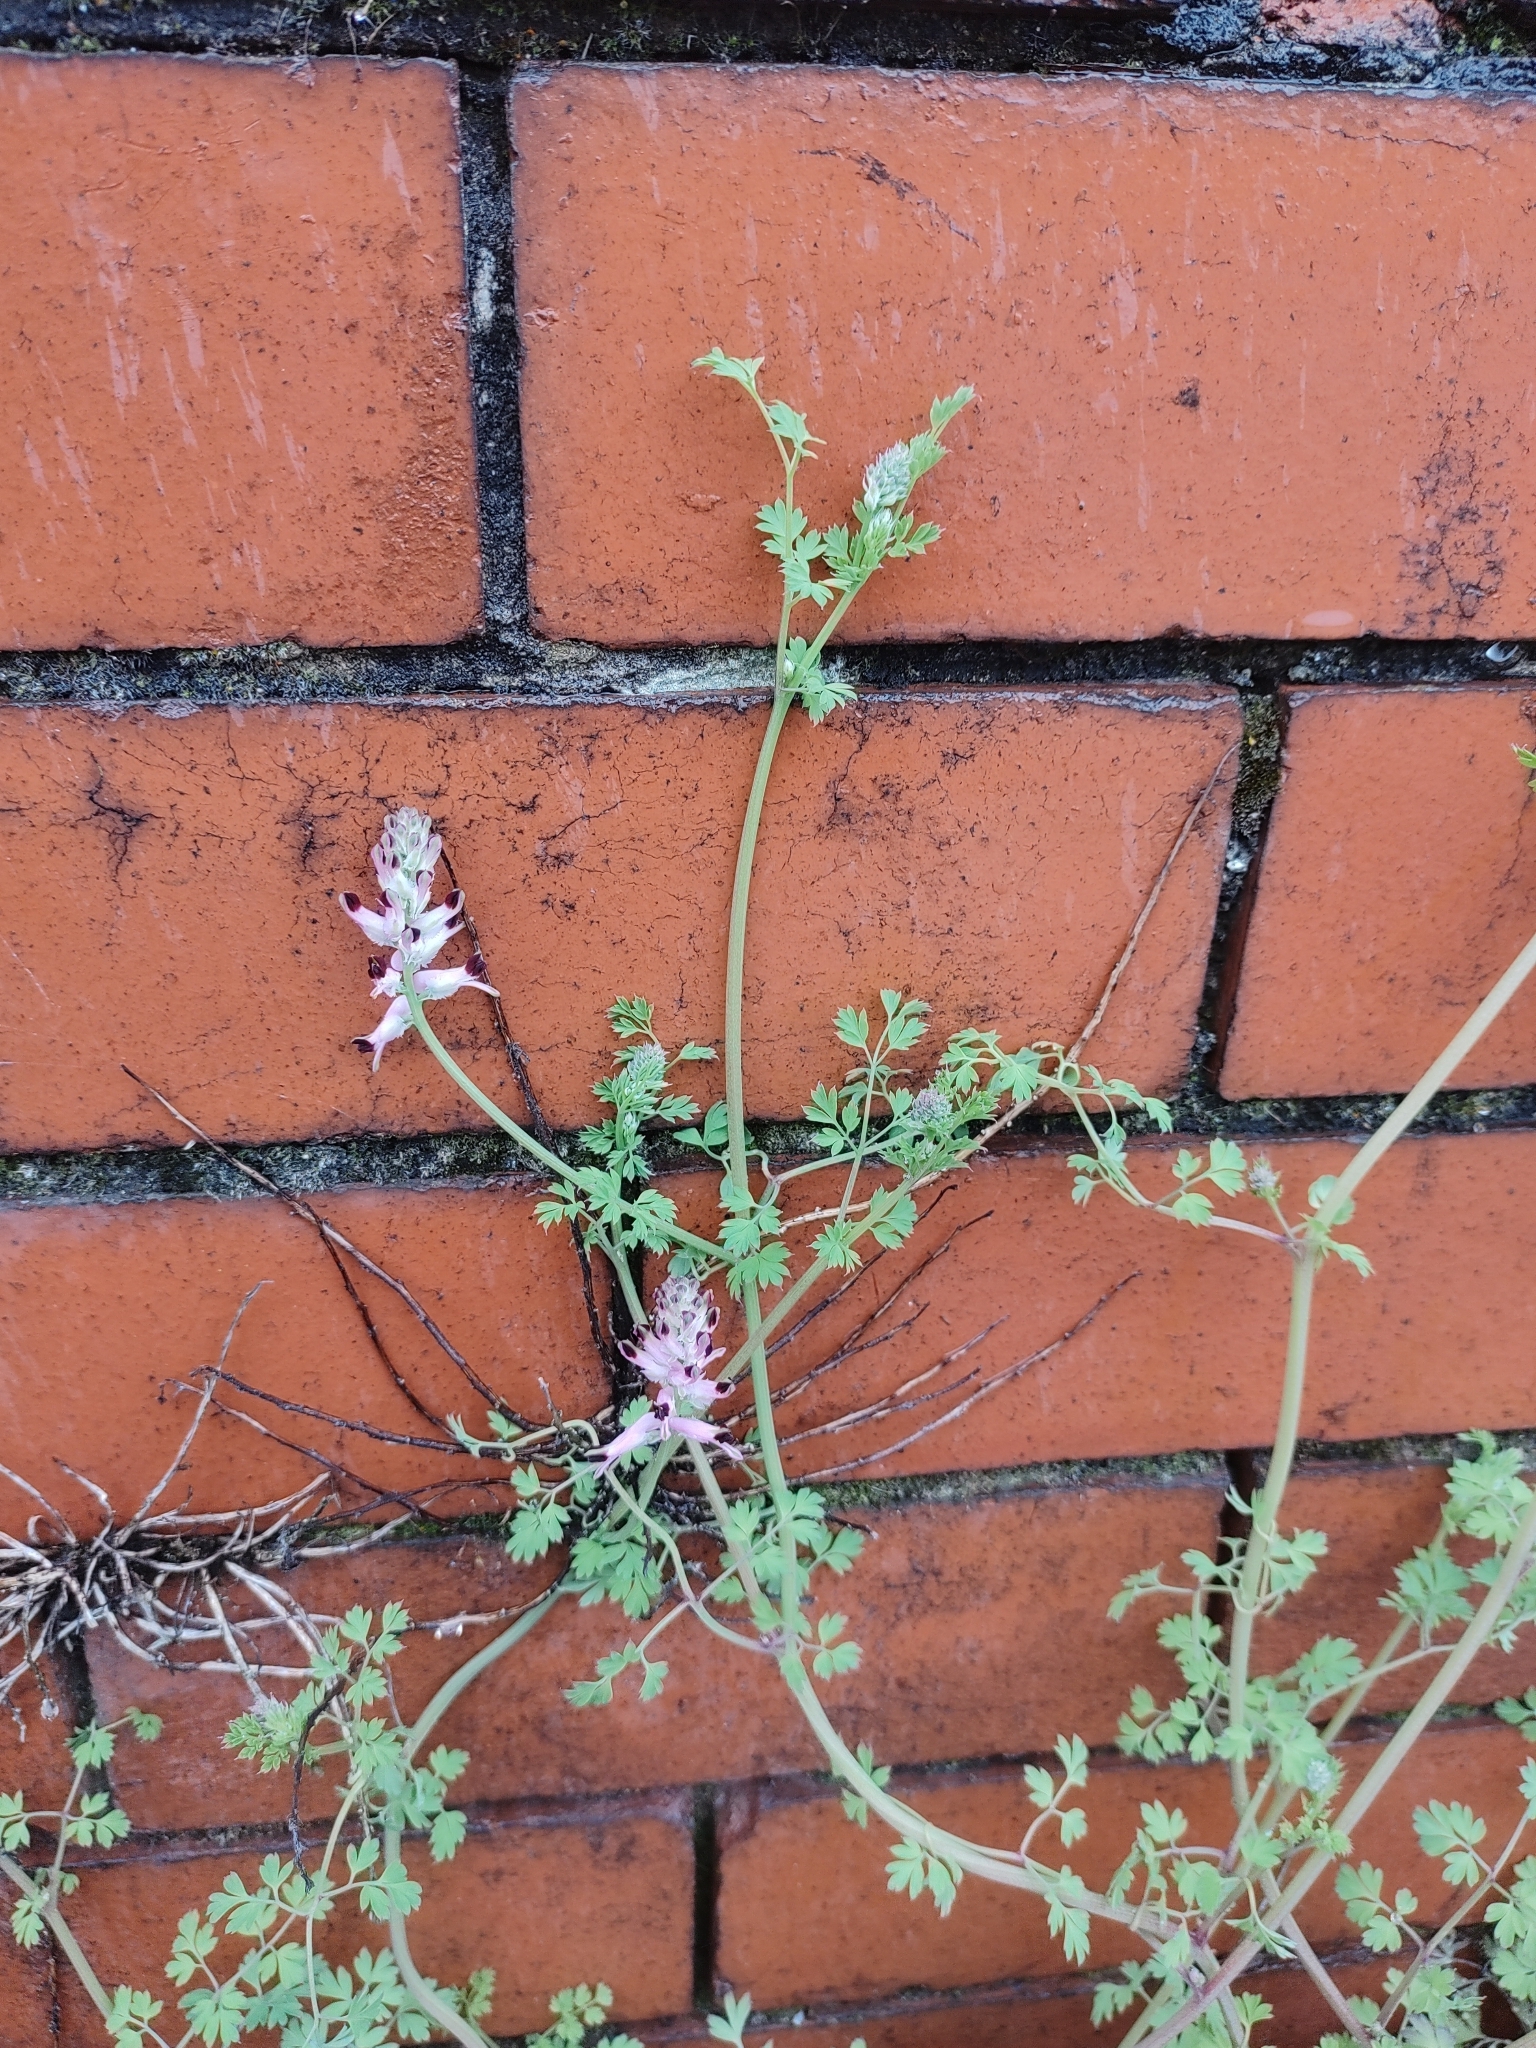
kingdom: Plantae
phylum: Tracheophyta
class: Magnoliopsida
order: Ranunculales
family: Papaveraceae
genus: Fumaria
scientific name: Fumaria muralis
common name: Common ramping-fumitory
